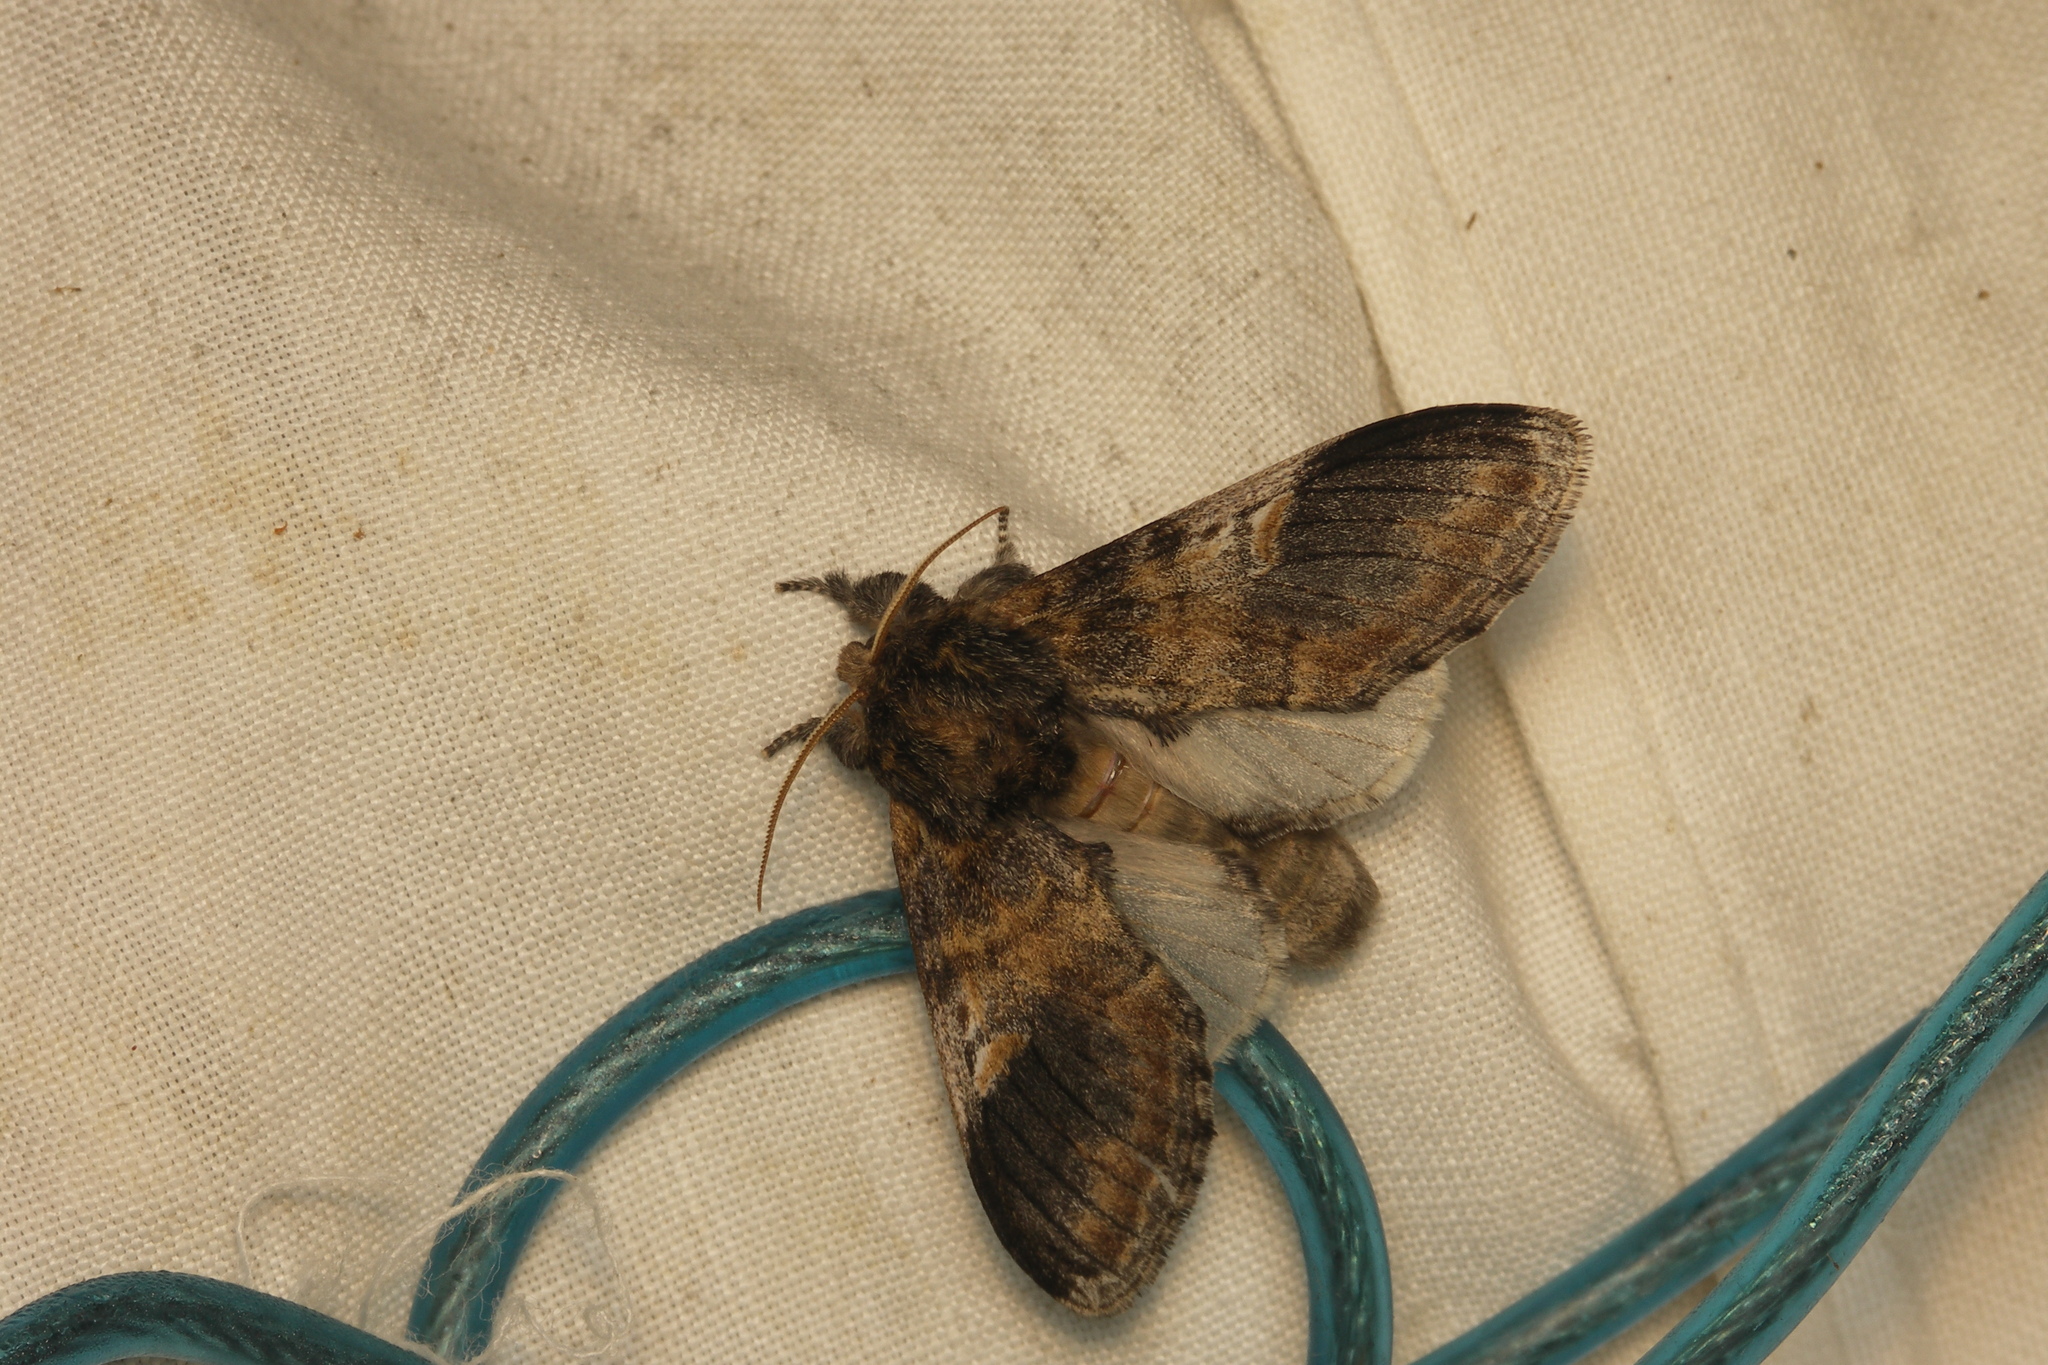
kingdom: Animalia
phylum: Arthropoda
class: Insecta
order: Lepidoptera
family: Notodontidae
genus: Notodonta
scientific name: Notodonta dromedarius
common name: Iron prominent
